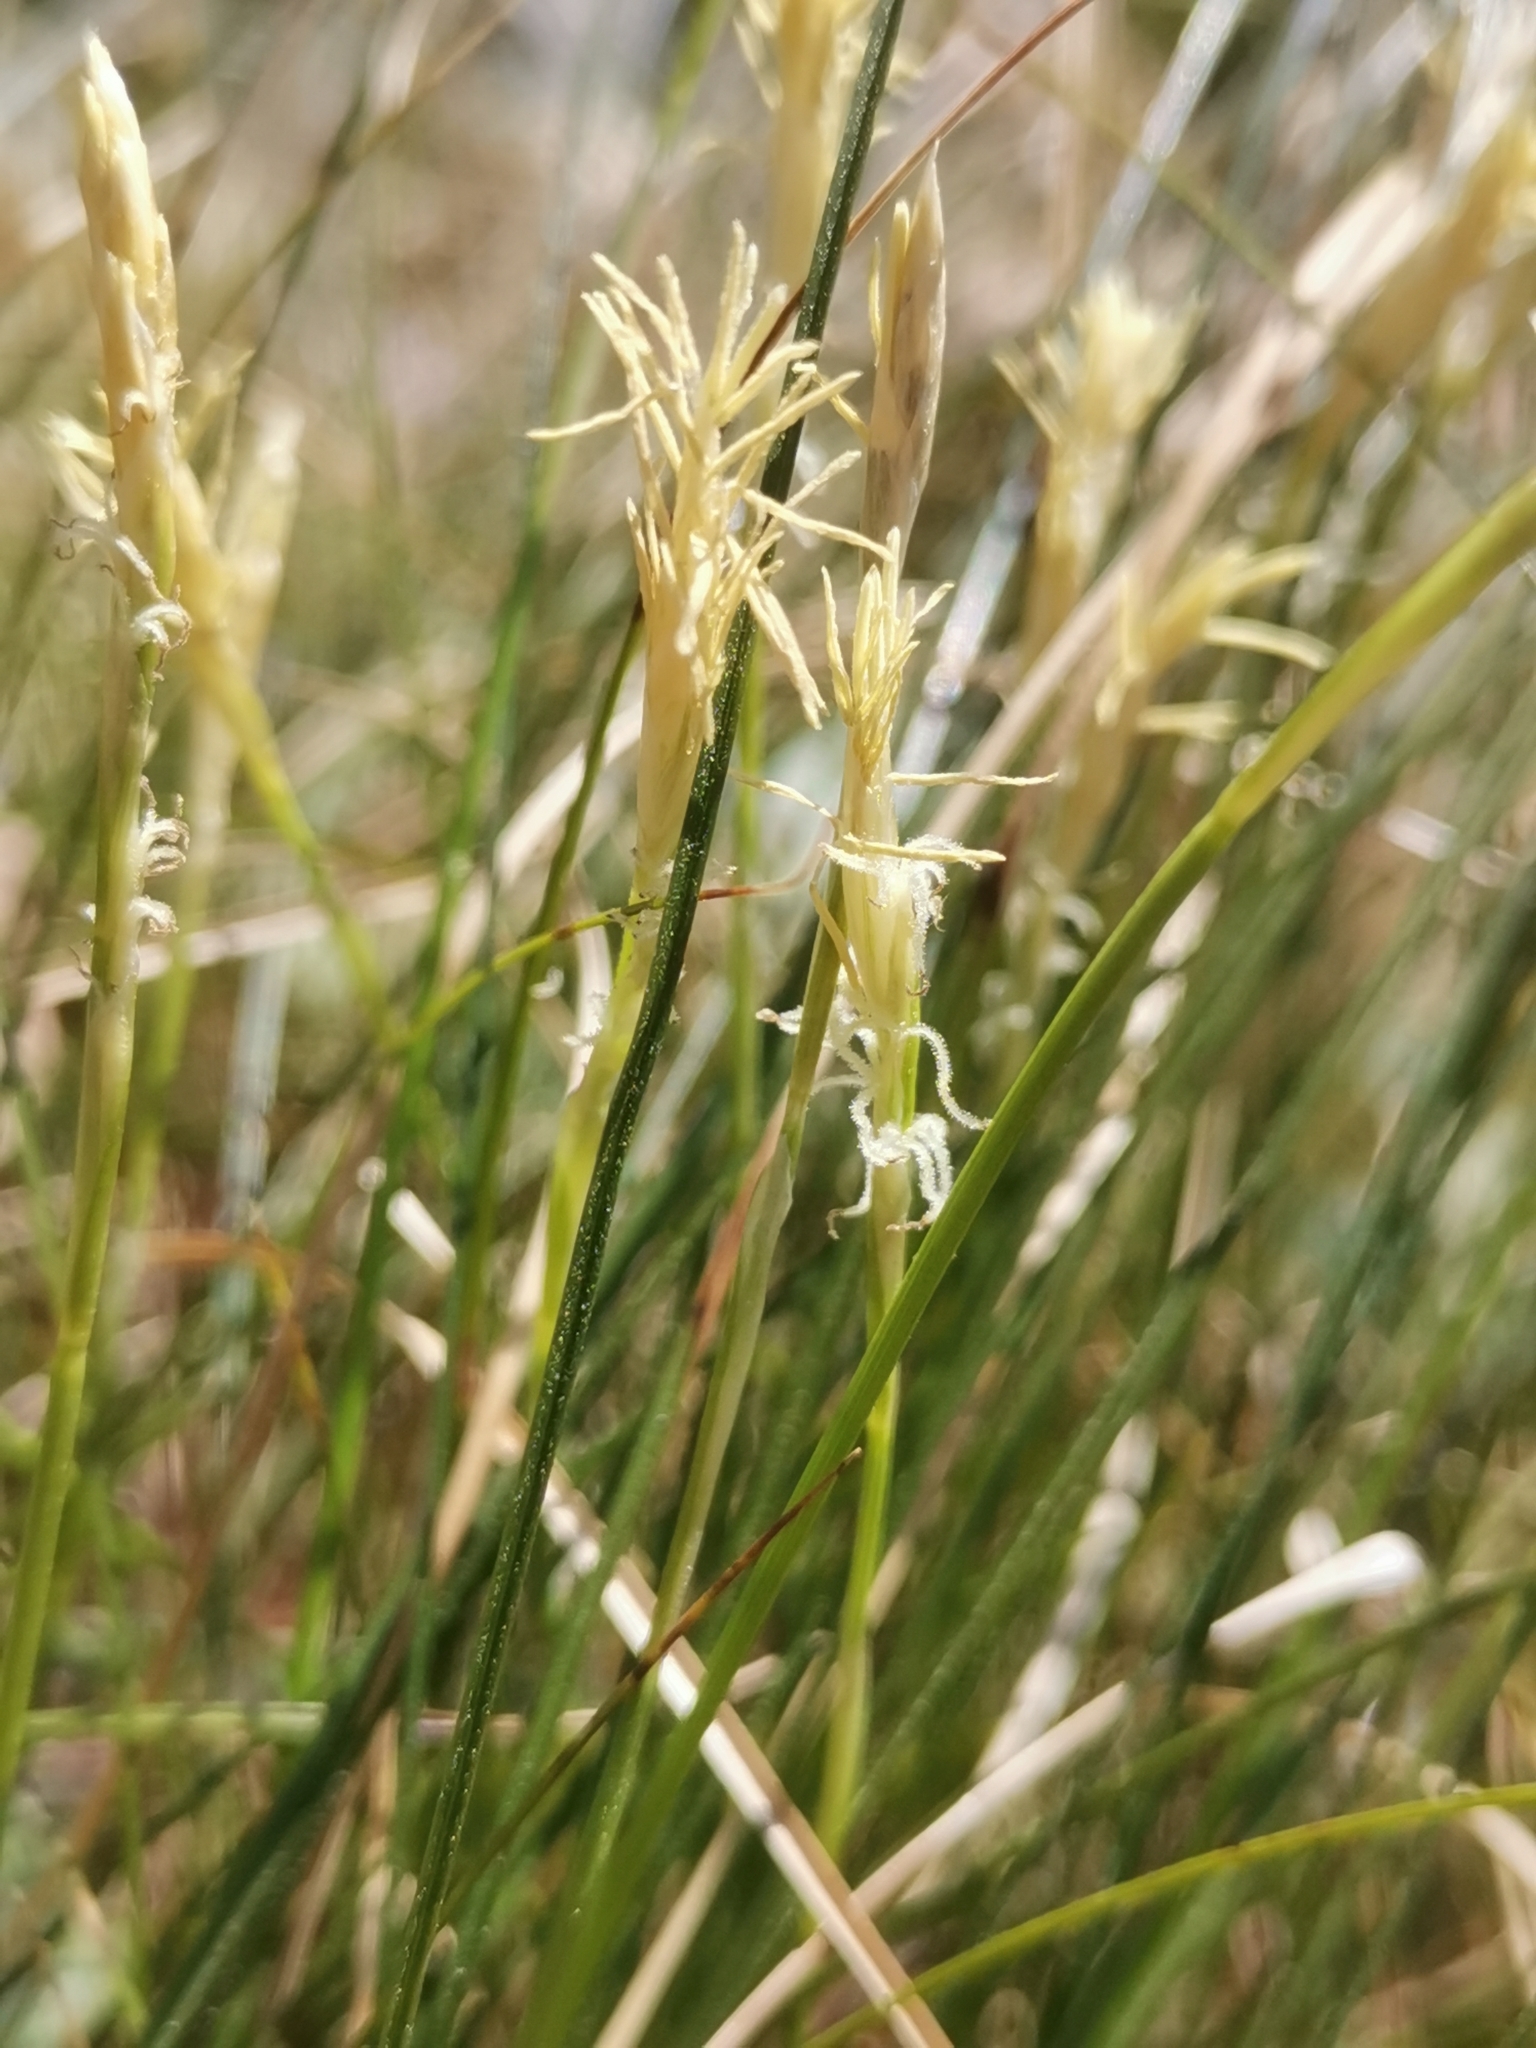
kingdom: Plantae
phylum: Tracheophyta
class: Liliopsida
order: Poales
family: Cyperaceae
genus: Carex
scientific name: Carex alba
